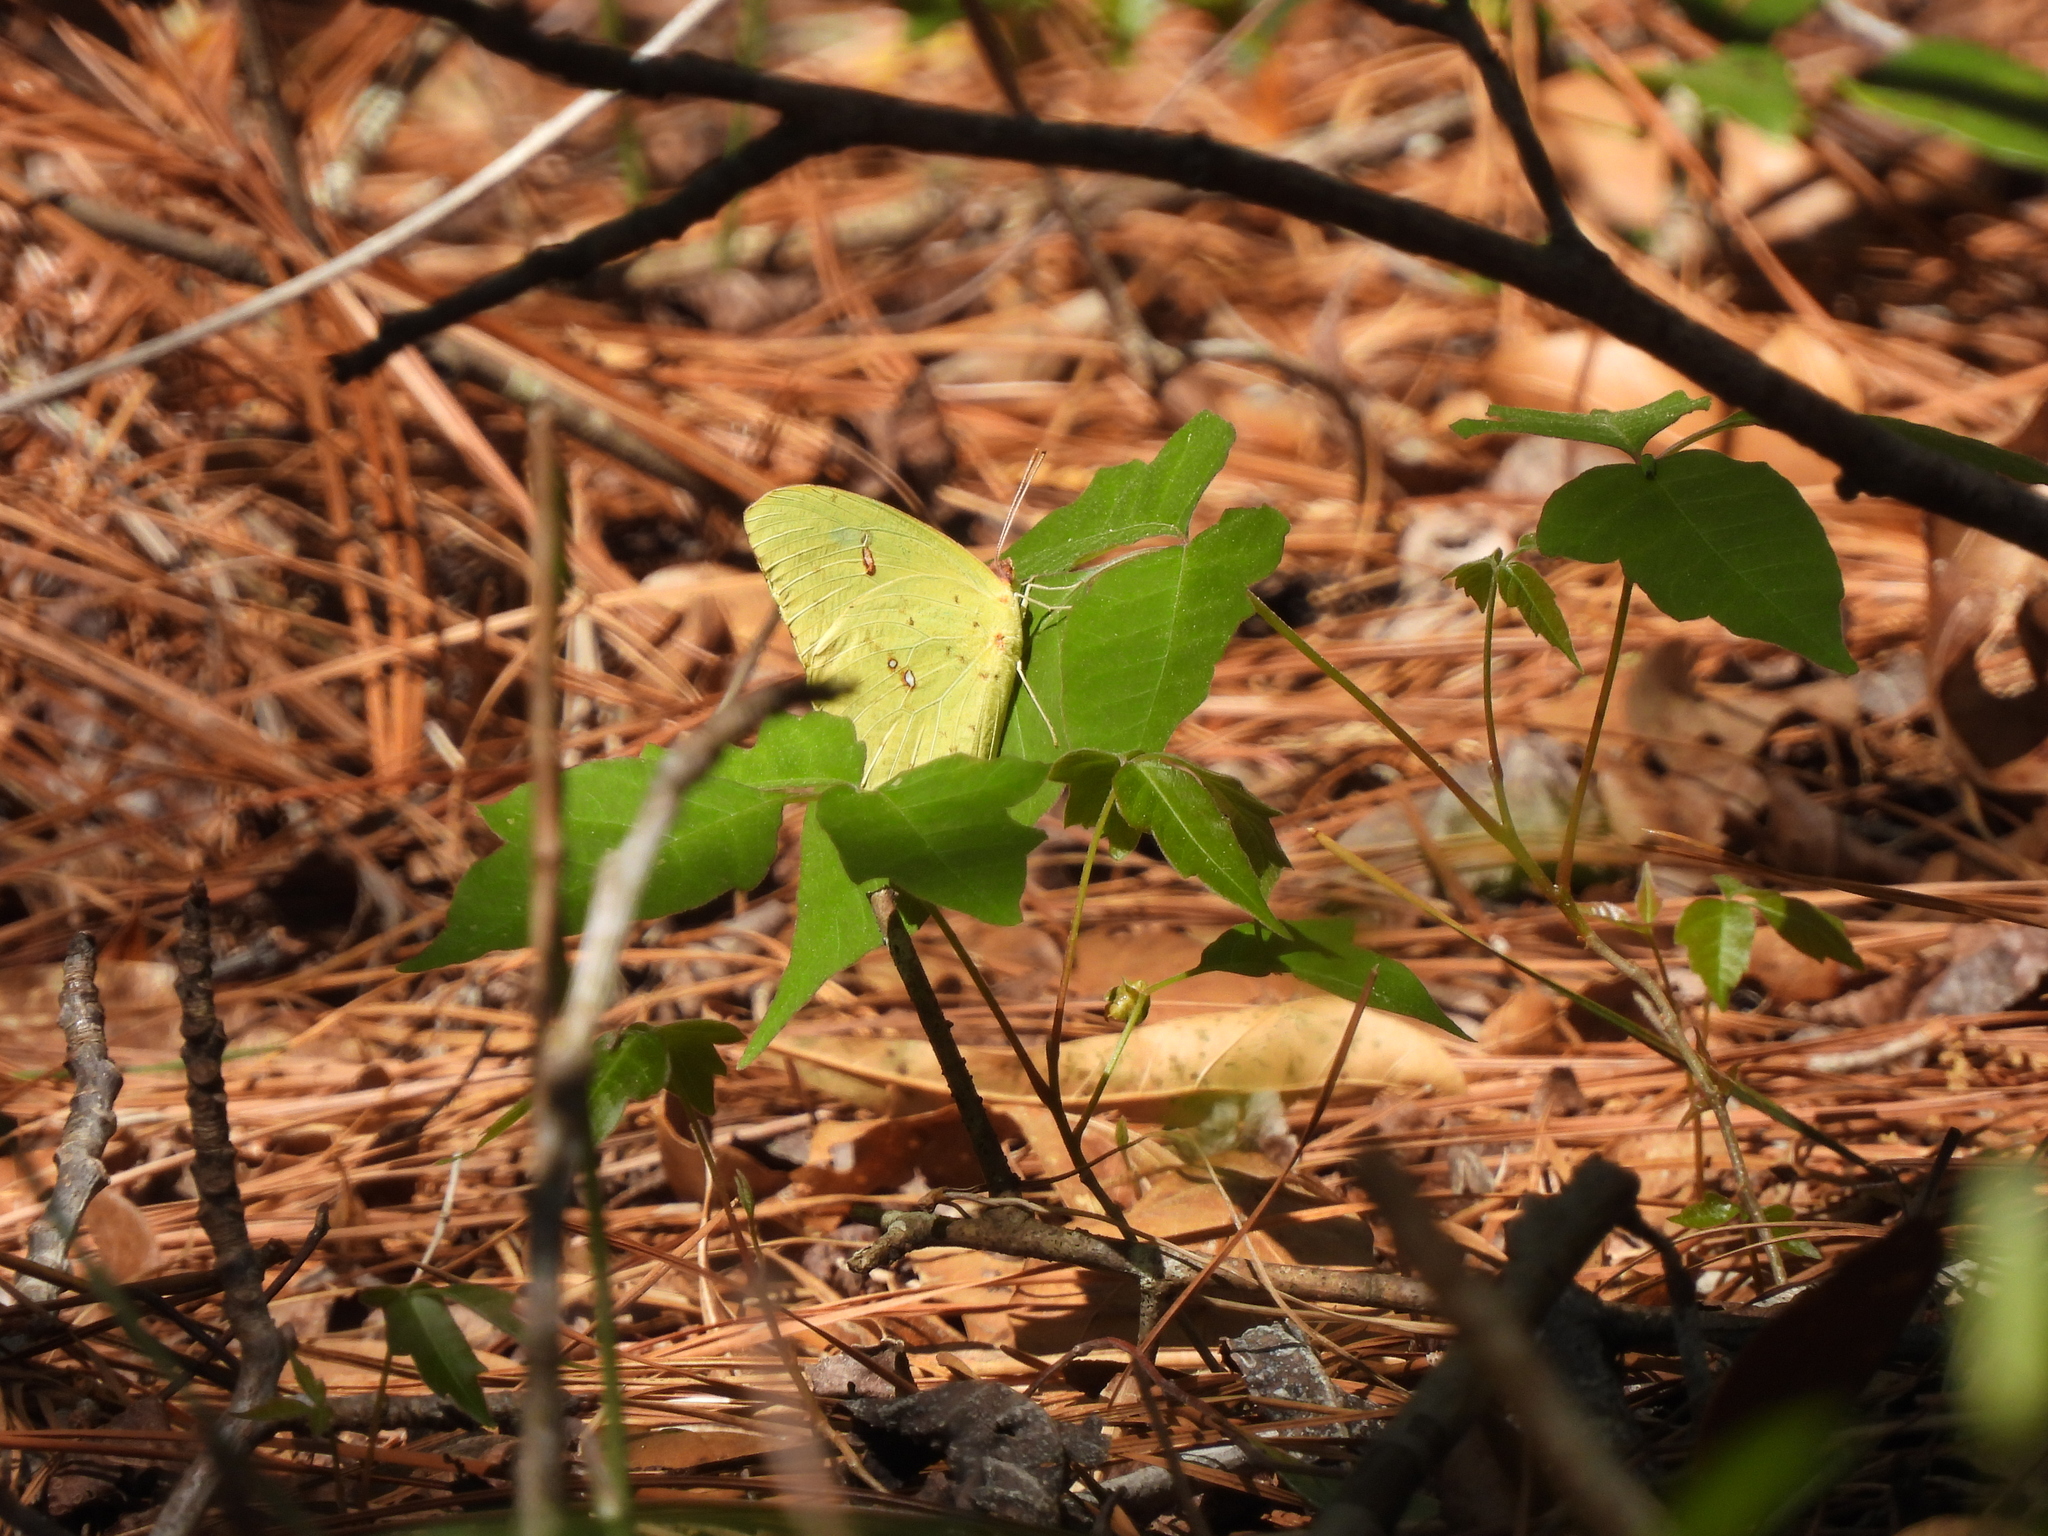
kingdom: Animalia
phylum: Arthropoda
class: Insecta
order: Lepidoptera
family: Pieridae
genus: Phoebis
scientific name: Phoebis sennae
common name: Cloudless sulphur
